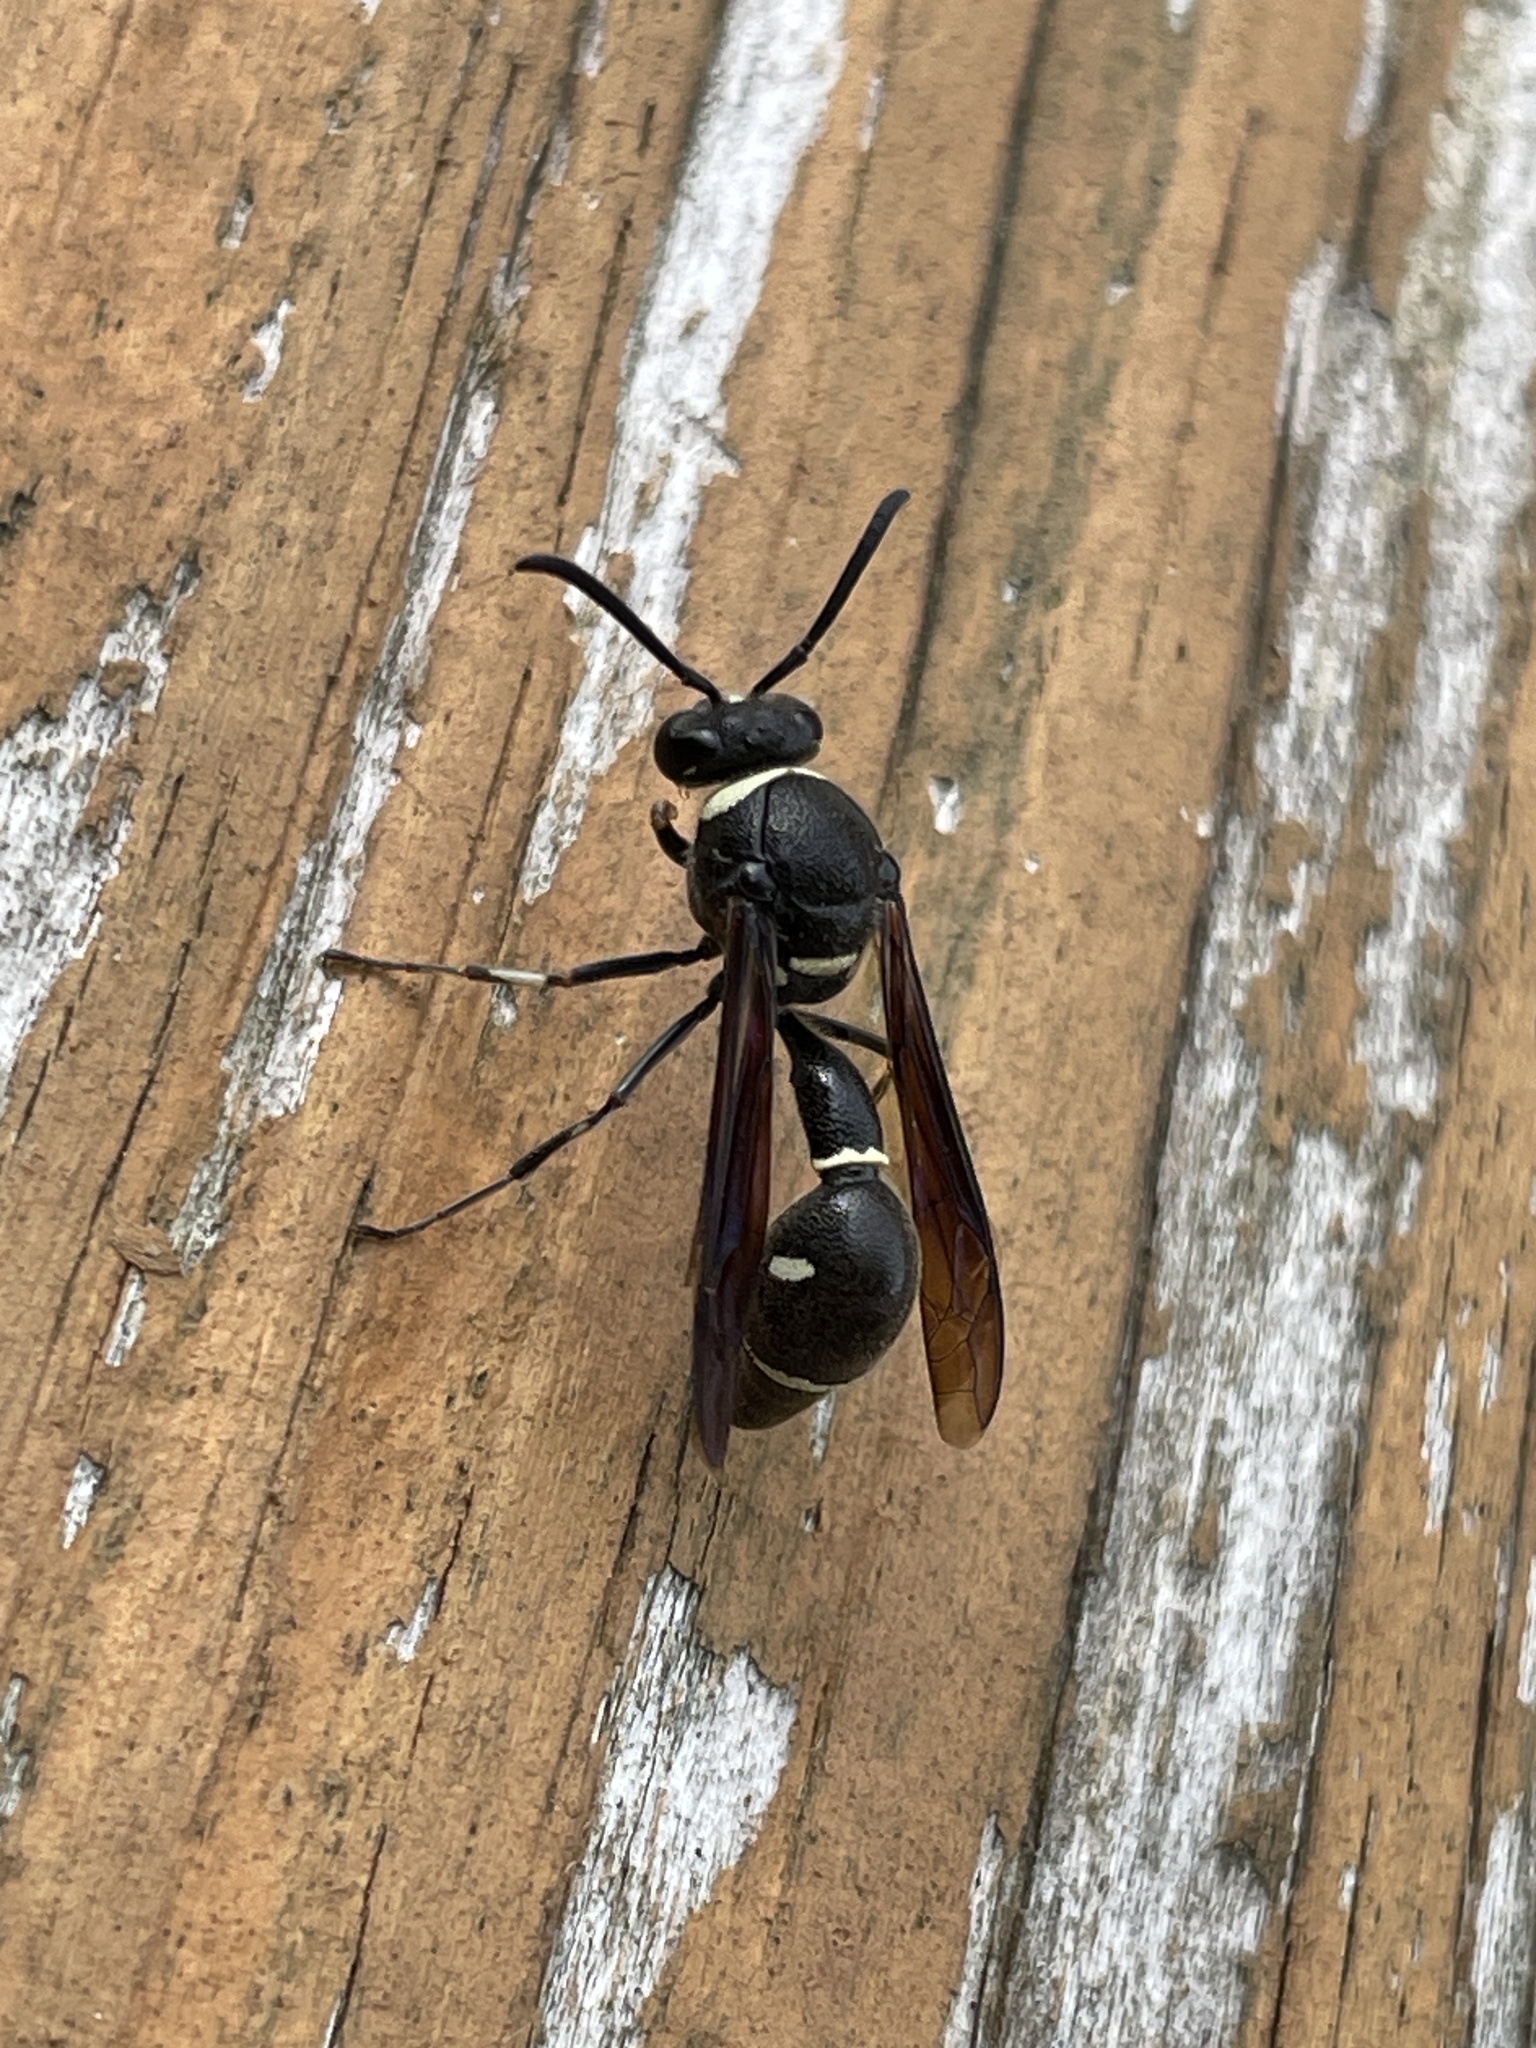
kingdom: Animalia
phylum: Arthropoda
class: Insecta
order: Hymenoptera
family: Vespidae
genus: Eumenes
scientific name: Eumenes fraternus
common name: Fraternal potter wasp
